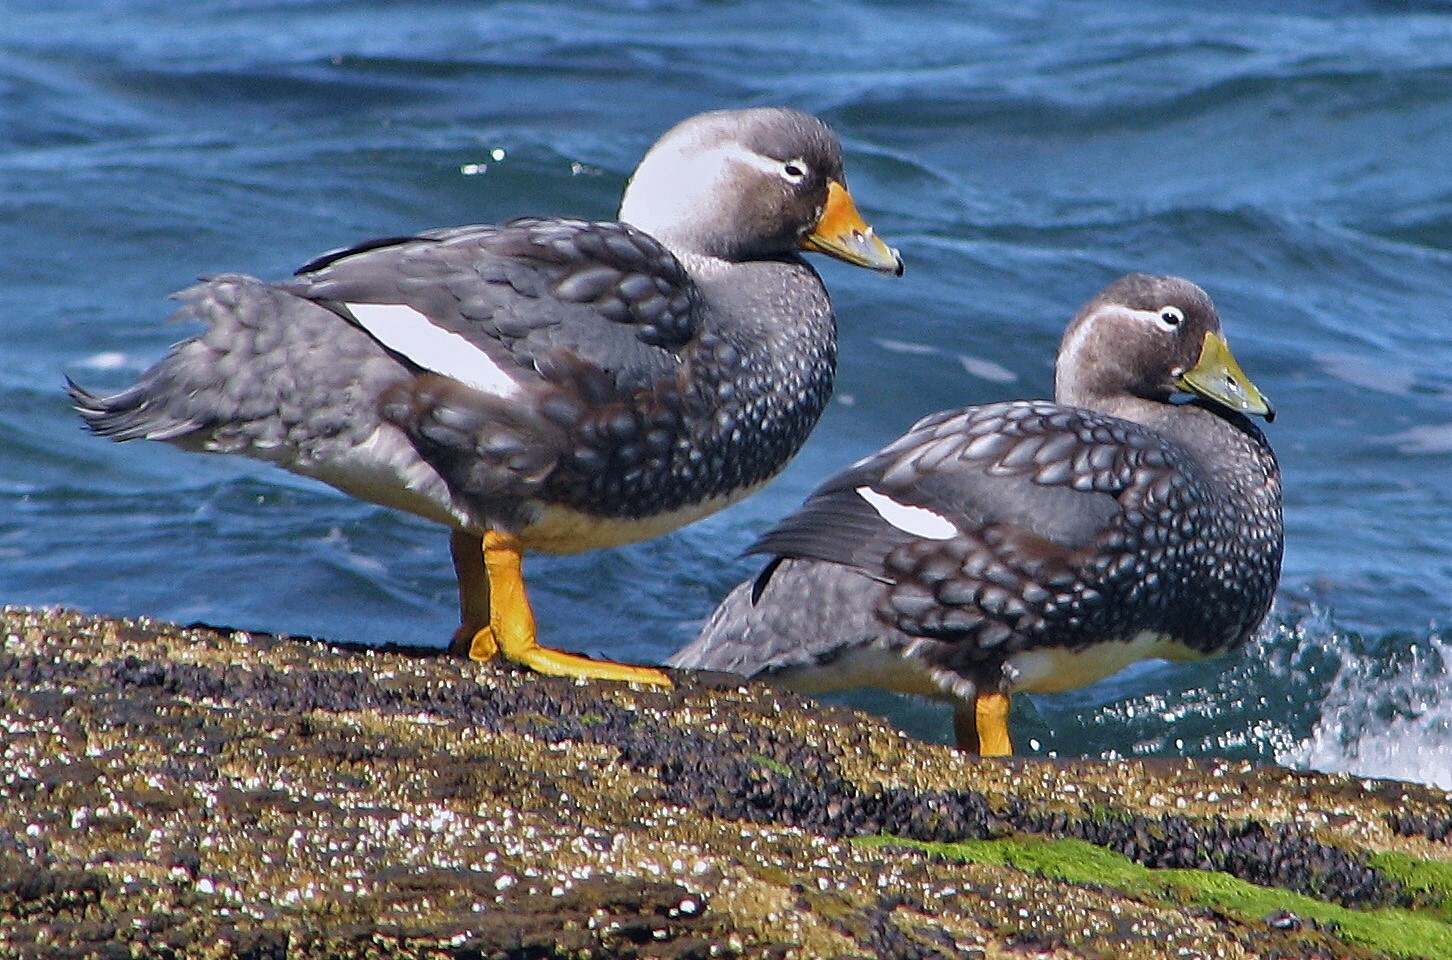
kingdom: Animalia
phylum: Chordata
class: Aves
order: Anseriformes
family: Anatidae
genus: Tachyeres
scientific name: Tachyeres leucocephalus
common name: Chubut steamer duck
